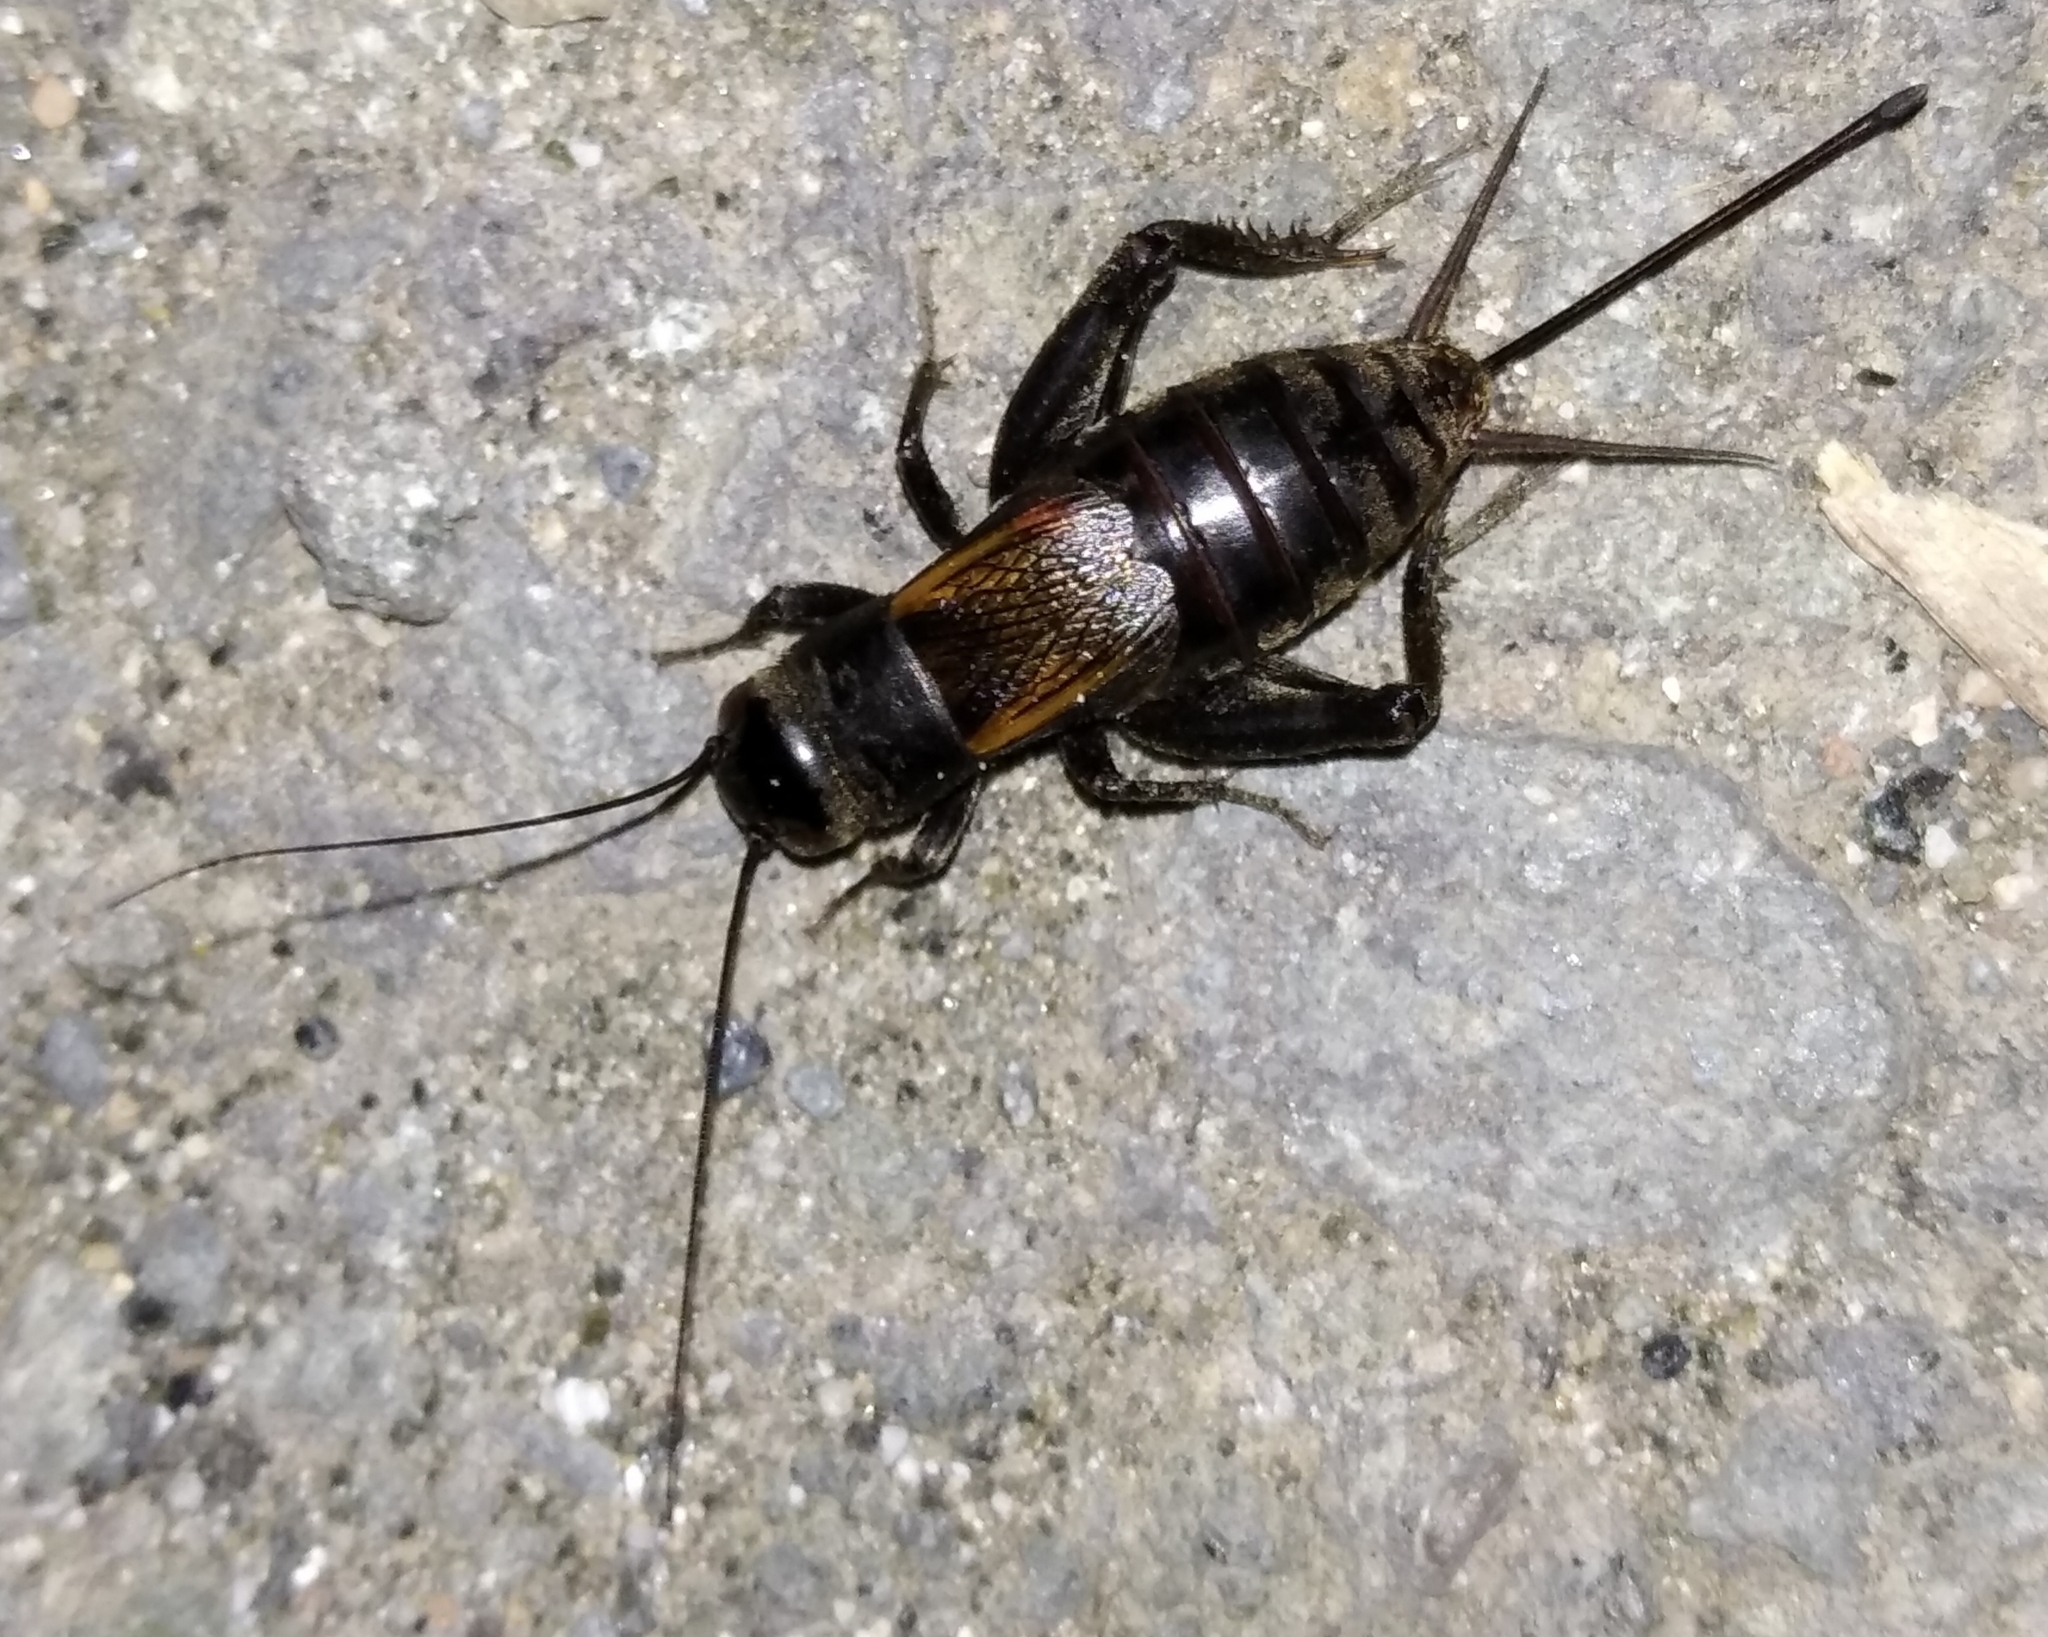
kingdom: Animalia
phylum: Arthropoda
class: Insecta
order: Orthoptera
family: Gryllidae
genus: Gryllus
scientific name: Gryllus campestris
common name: Field cricket
